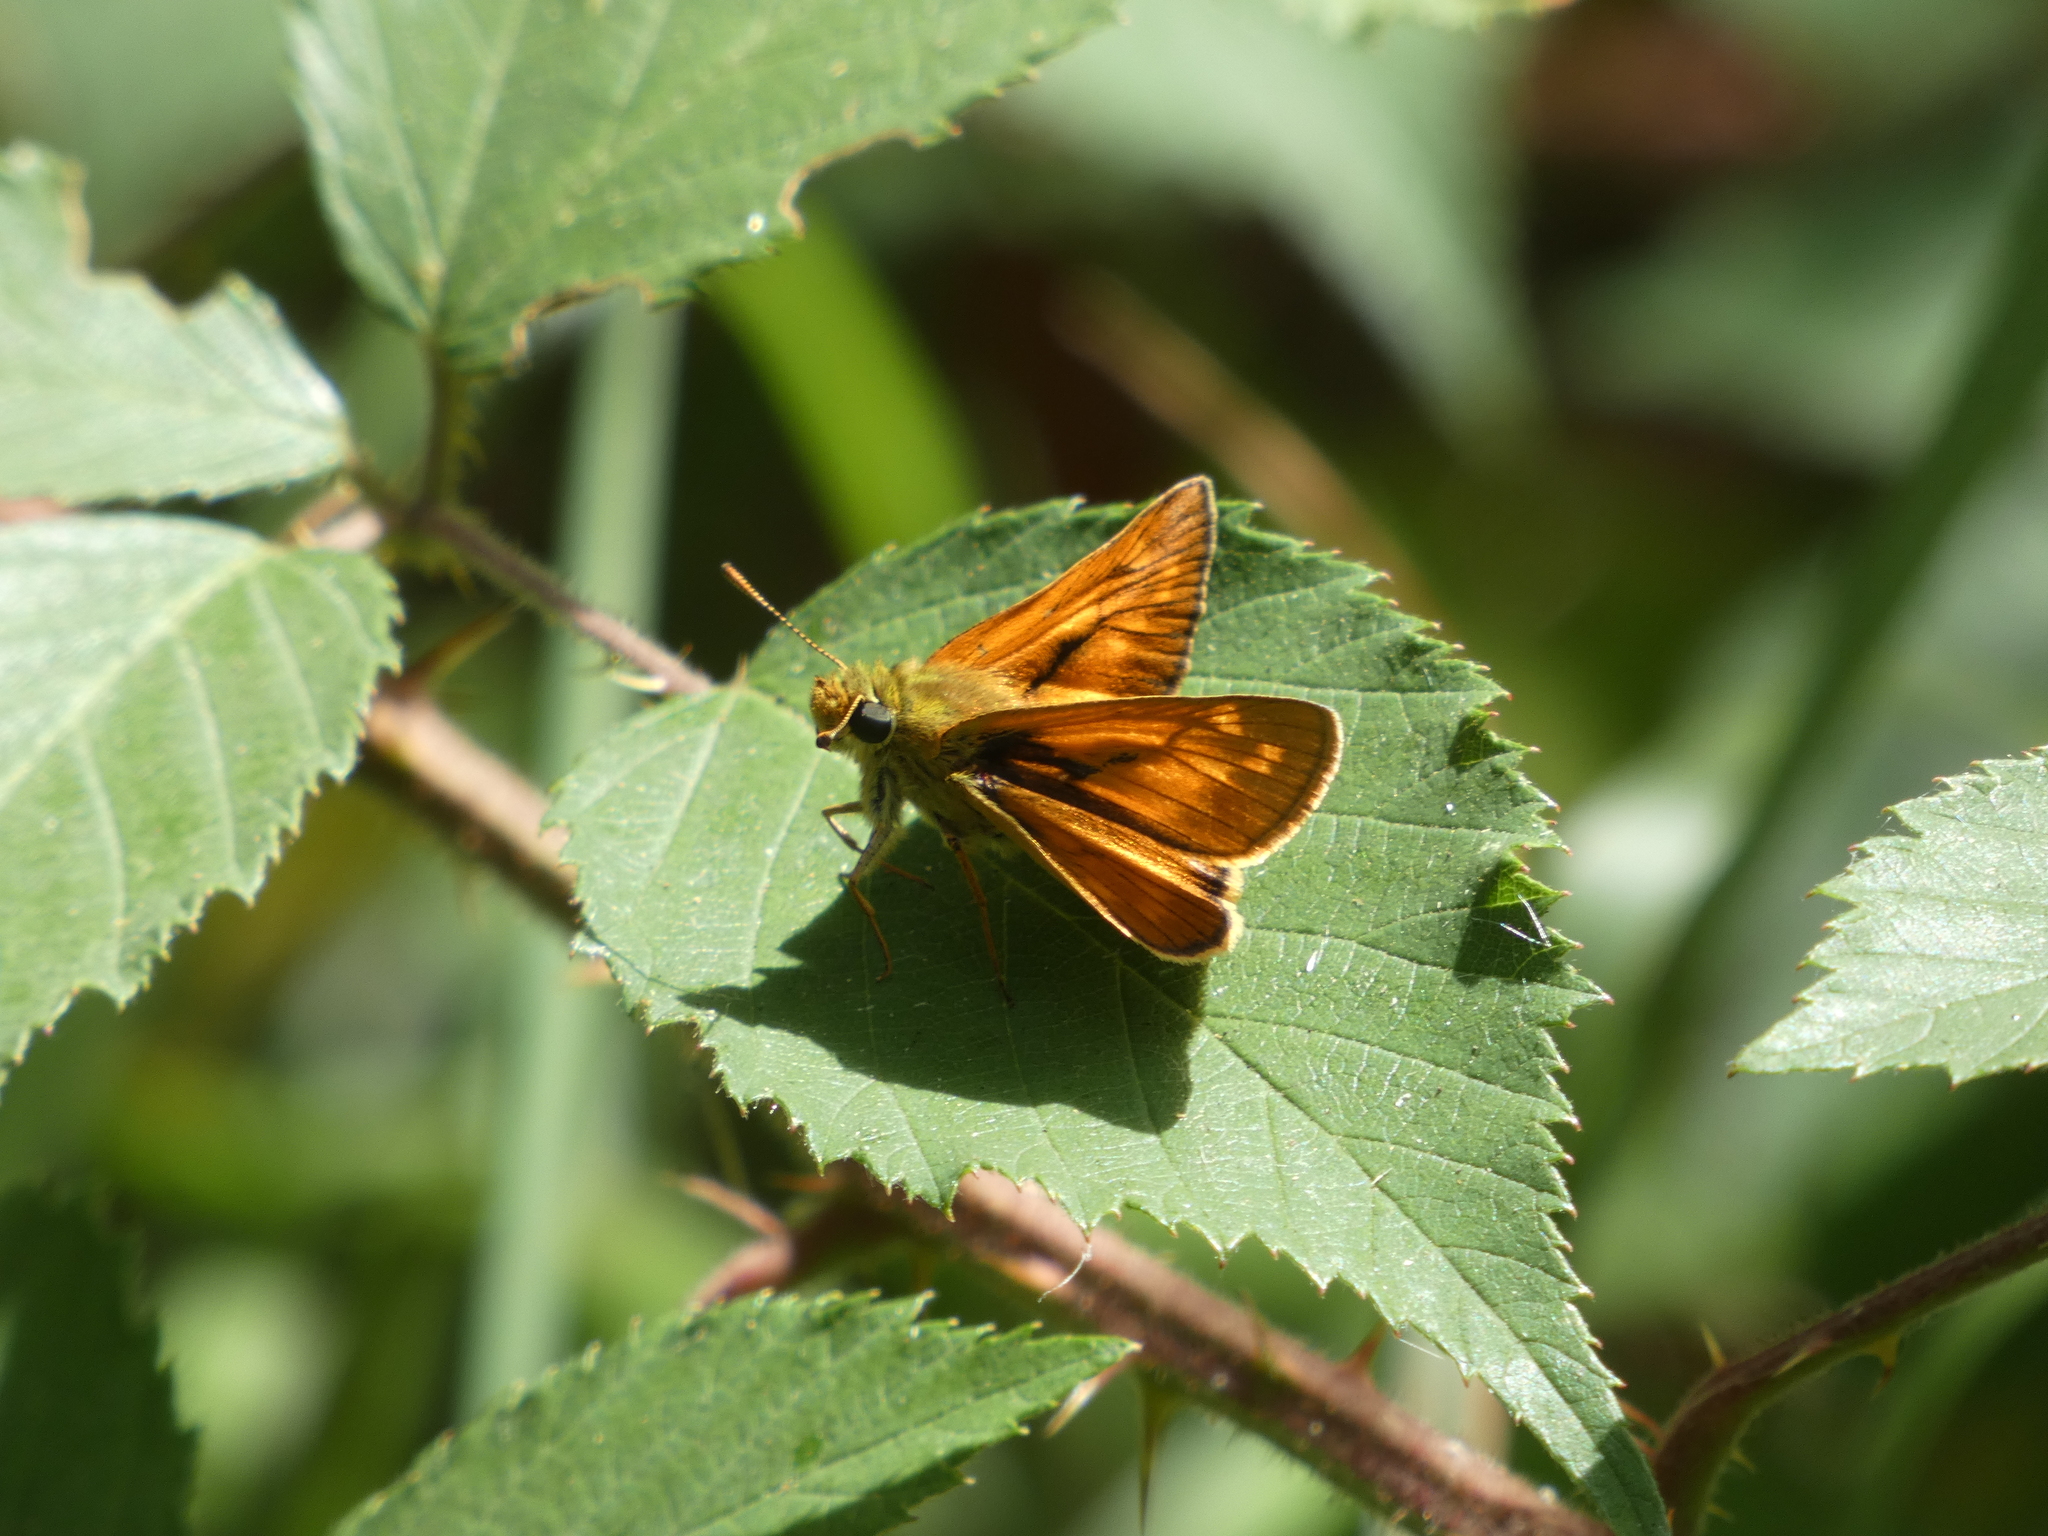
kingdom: Animalia
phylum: Arthropoda
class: Insecta
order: Lepidoptera
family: Hesperiidae
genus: Ochlodes
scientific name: Ochlodes venata
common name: Large skipper
